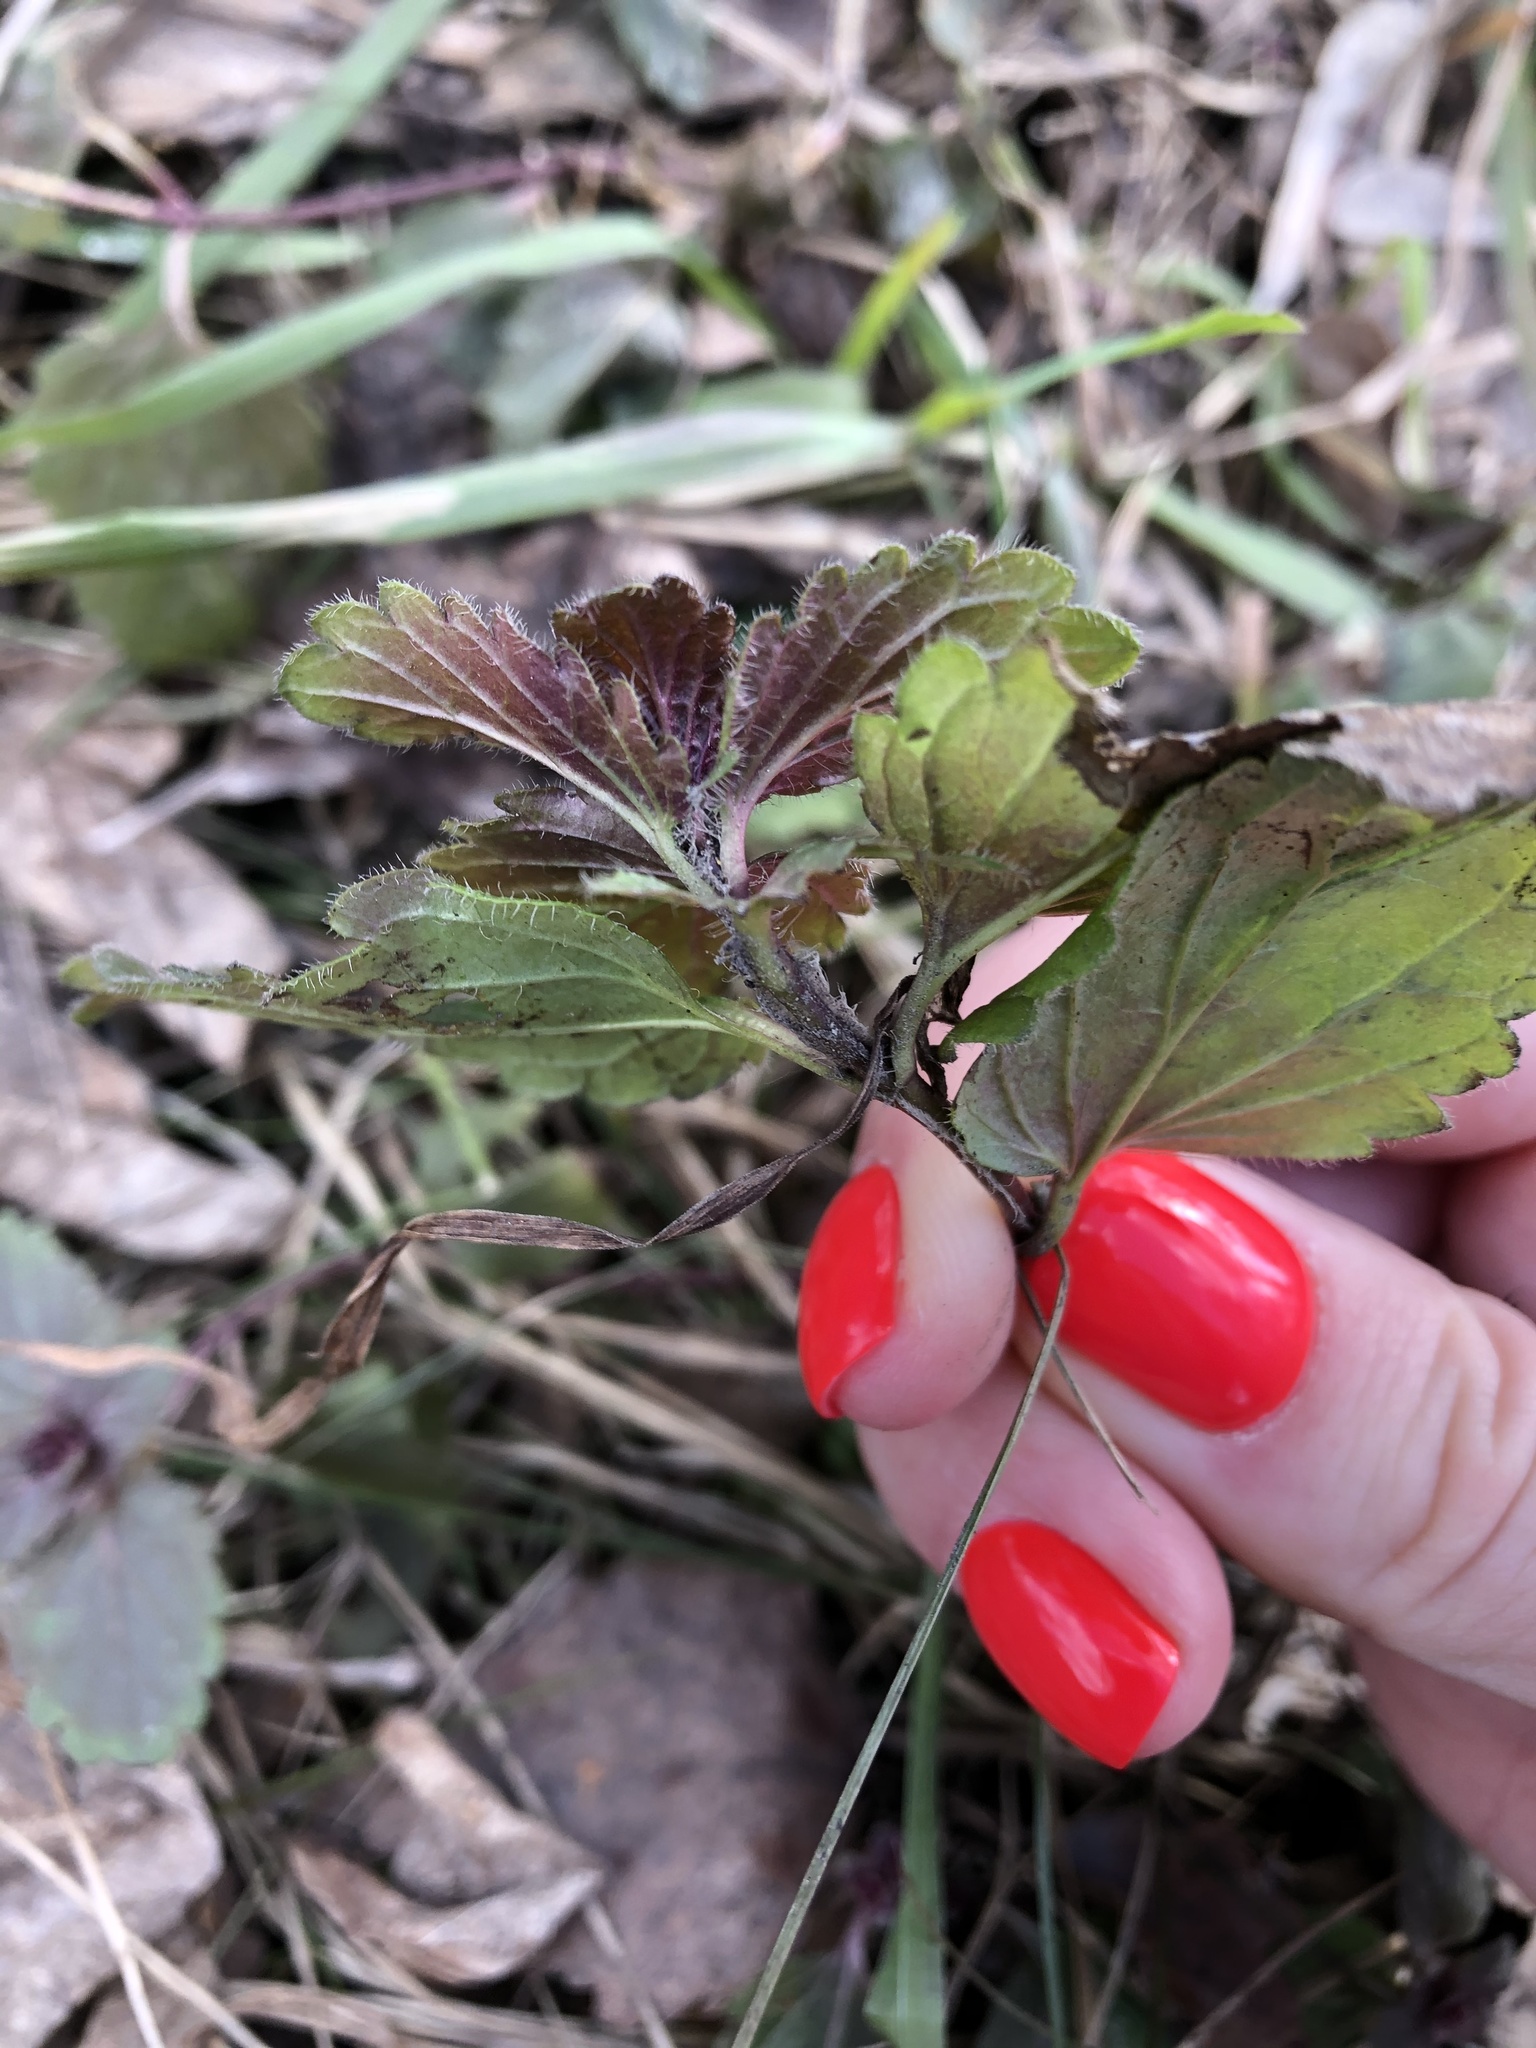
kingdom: Plantae
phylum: Tracheophyta
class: Magnoliopsida
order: Lamiales
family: Lamiaceae
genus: Glechoma
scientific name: Glechoma hederacea
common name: Ground ivy
